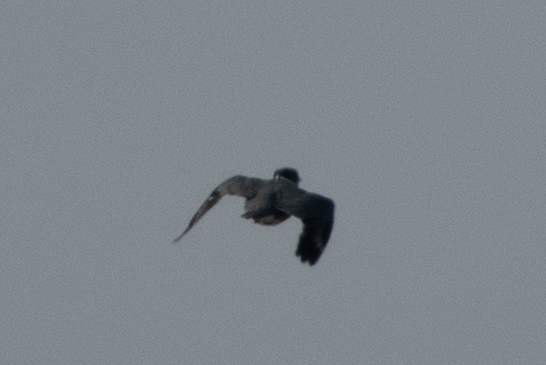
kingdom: Animalia
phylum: Chordata
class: Aves
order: Coraciiformes
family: Alcedinidae
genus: Megaceryle
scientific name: Megaceryle alcyon
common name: Belted kingfisher
